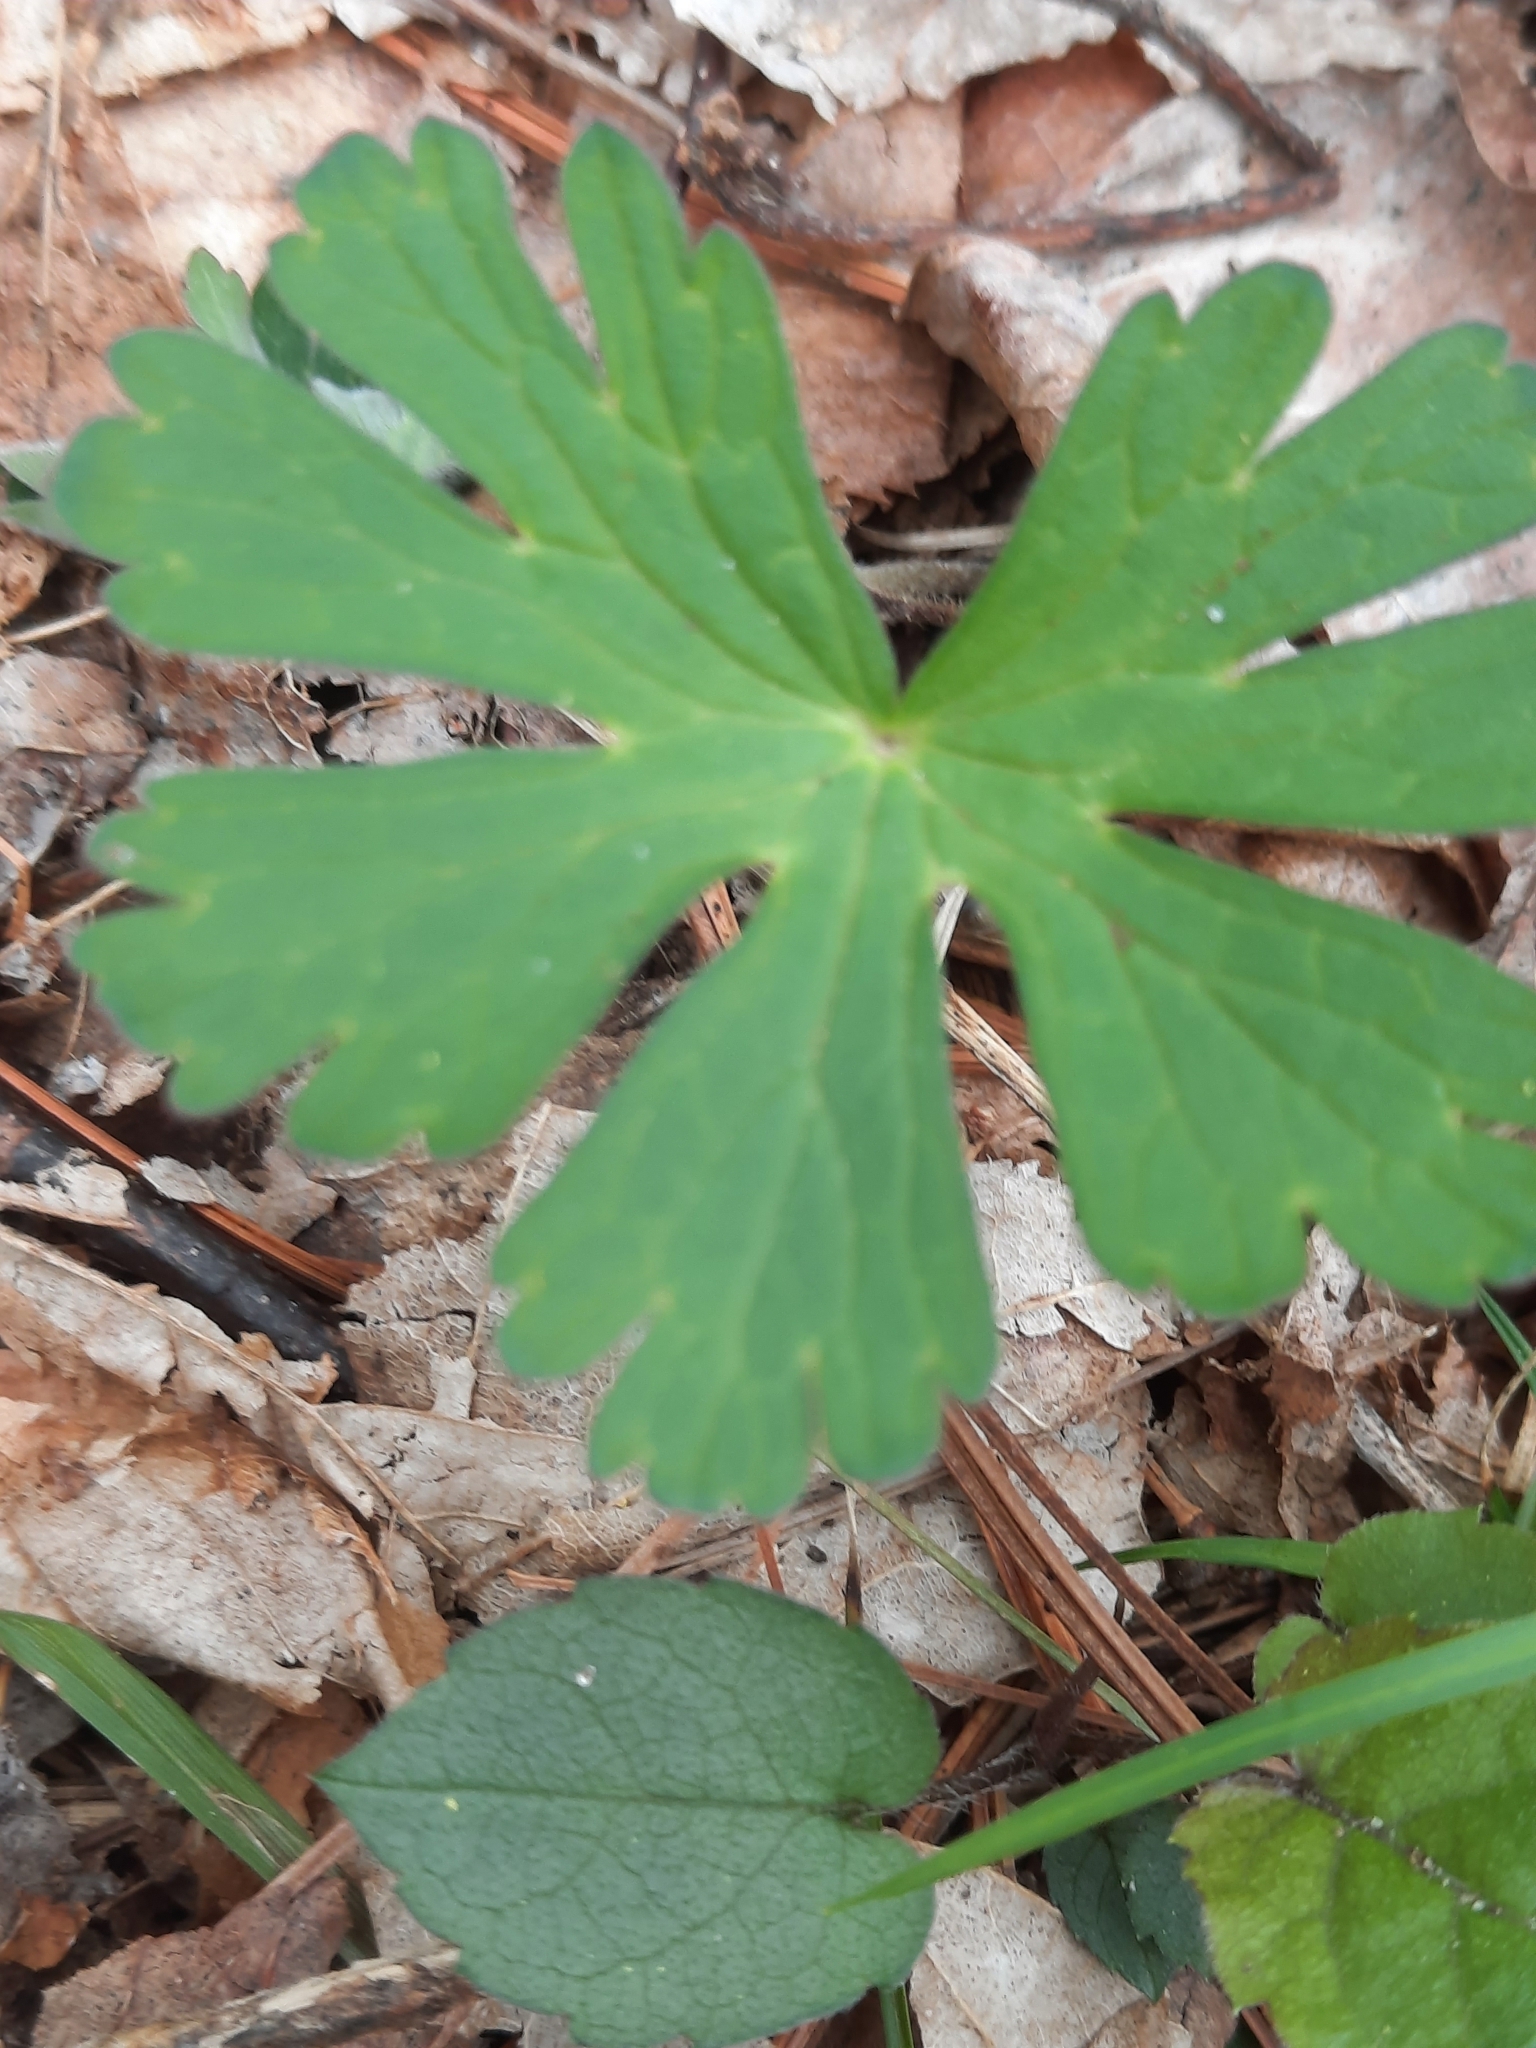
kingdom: Plantae
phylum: Tracheophyta
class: Magnoliopsida
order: Geraniales
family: Geraniaceae
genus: Geranium
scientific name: Geranium maculatum
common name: Spotted geranium
